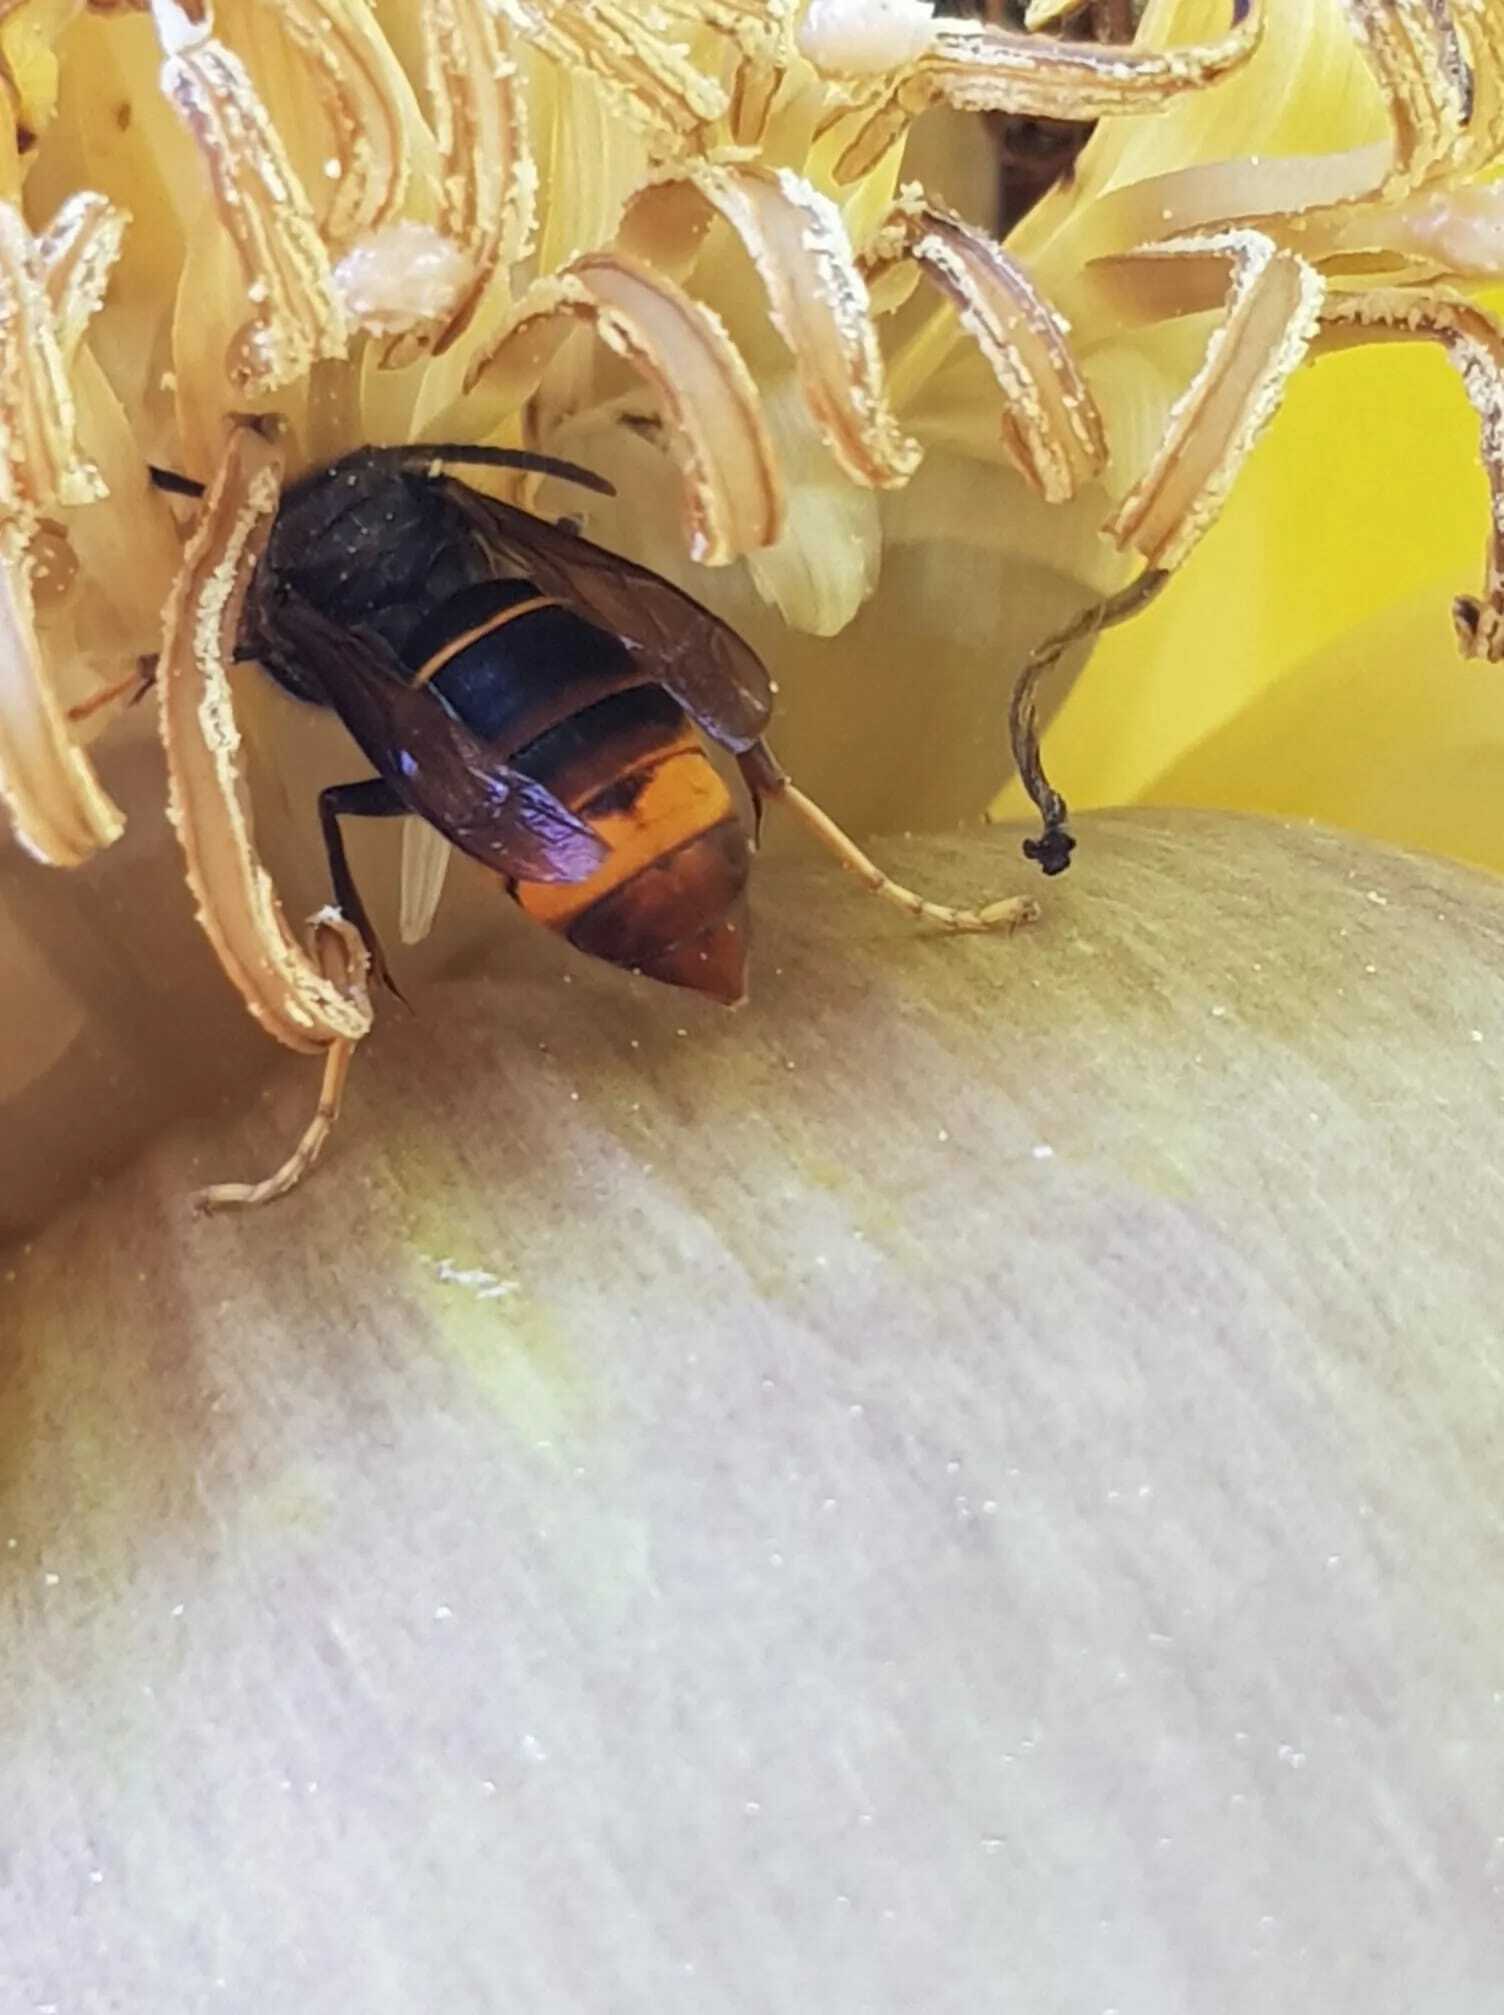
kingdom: Animalia
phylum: Arthropoda
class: Insecta
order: Hymenoptera
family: Vespidae
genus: Vespa
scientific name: Vespa velutina
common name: Asian hornet
